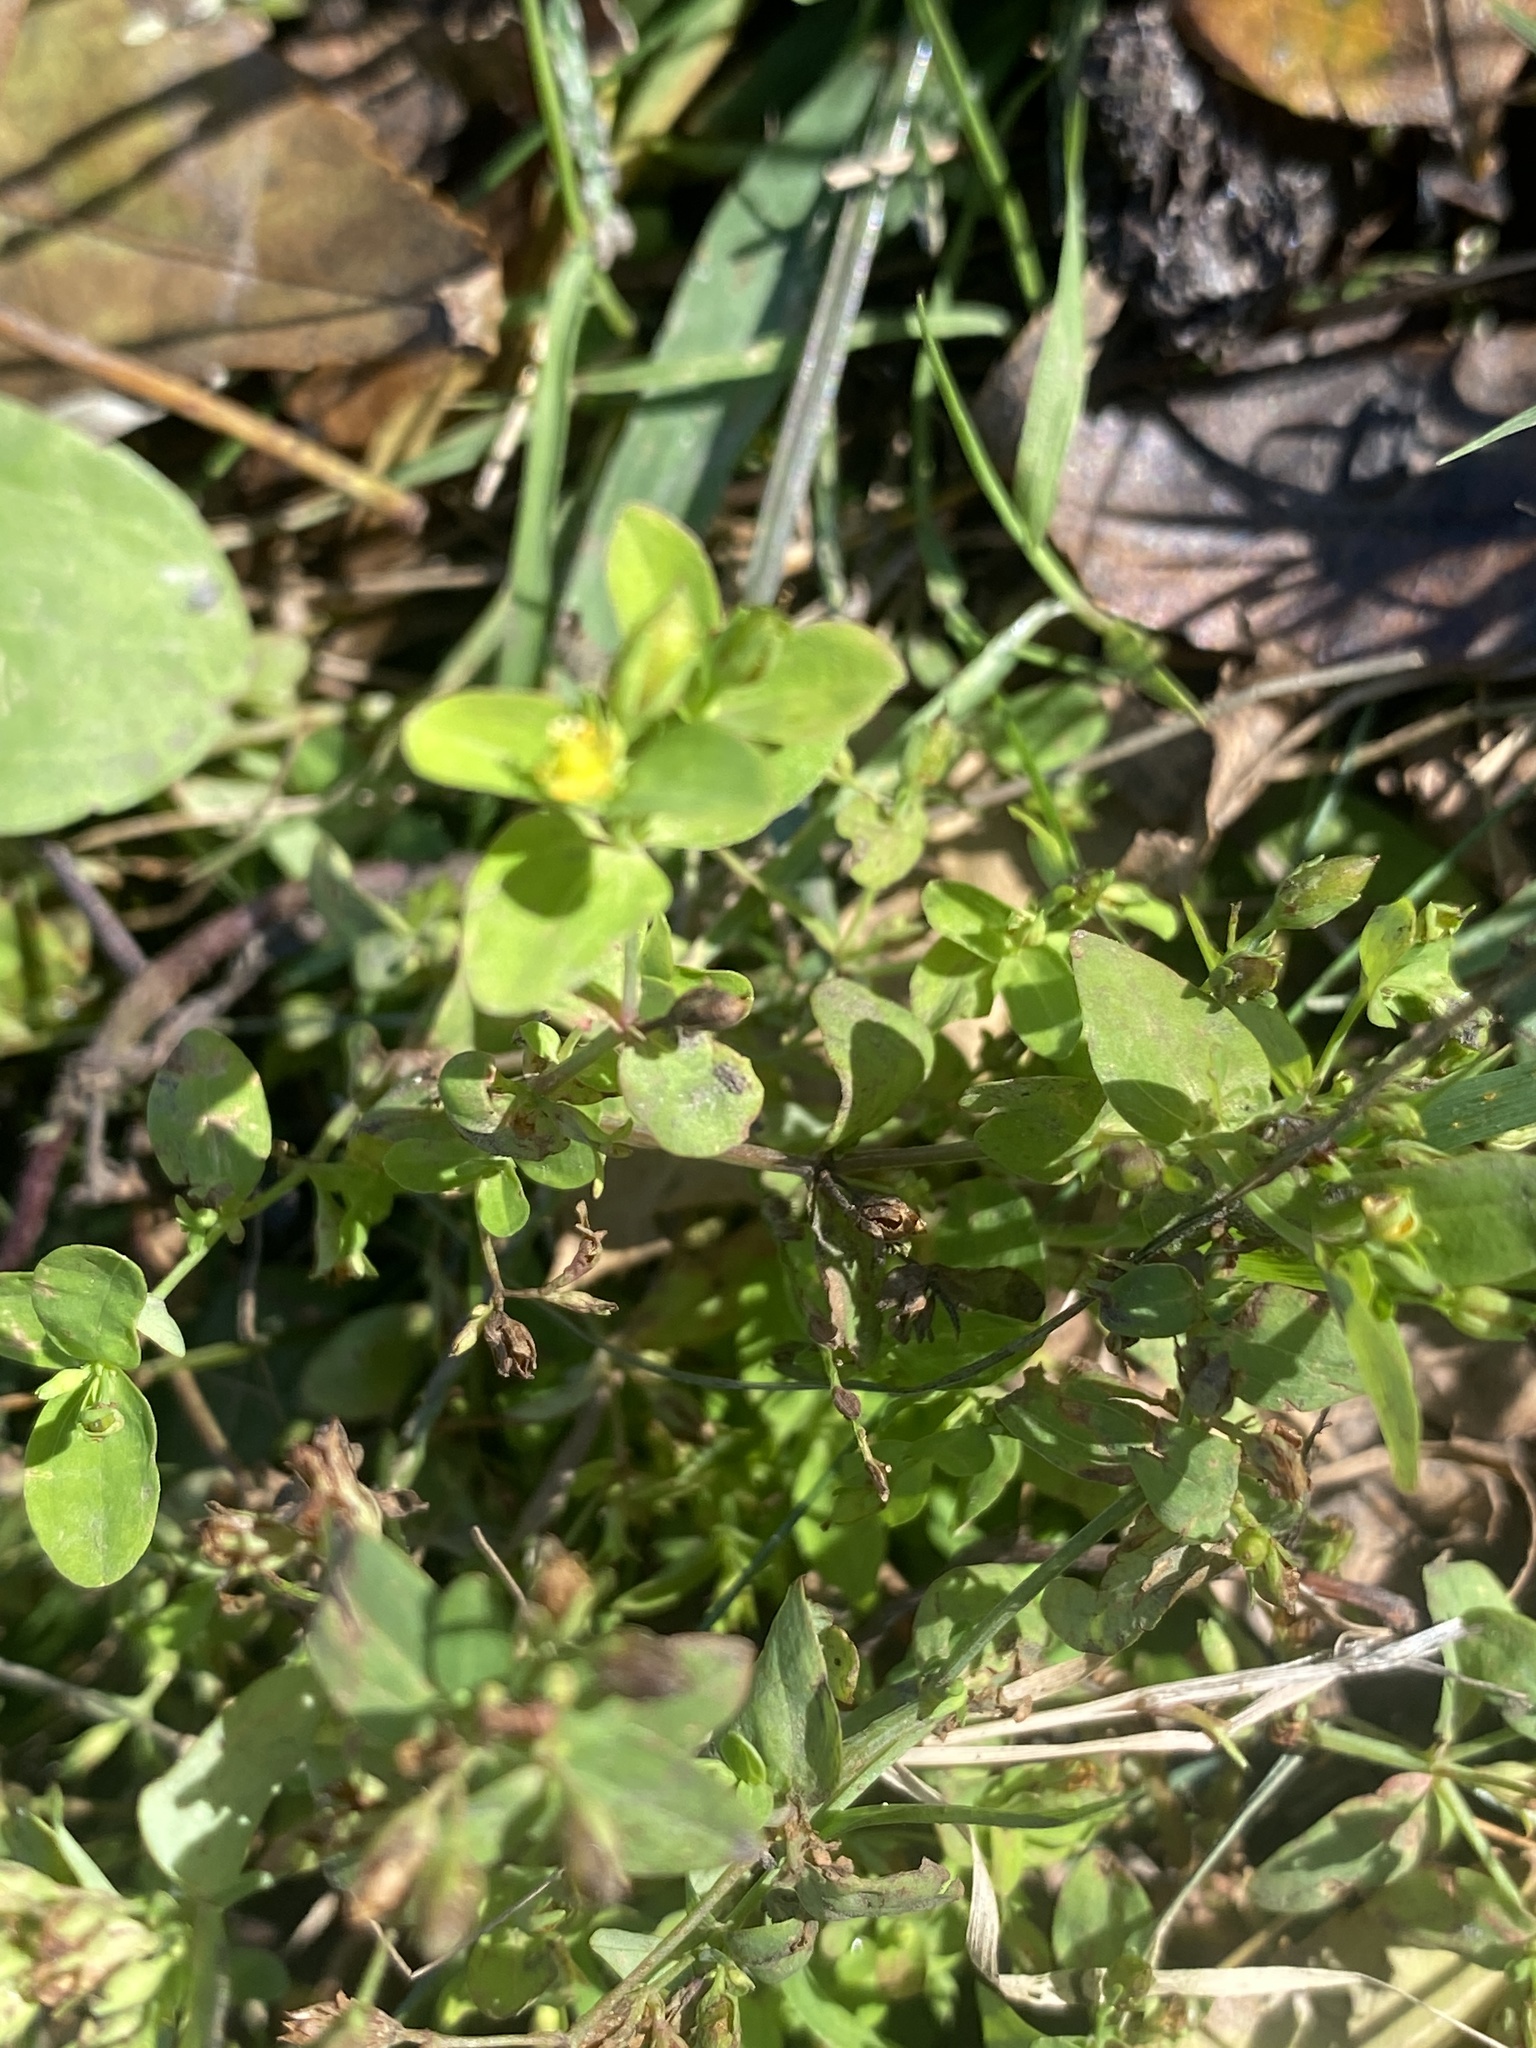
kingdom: Plantae
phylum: Tracheophyta
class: Magnoliopsida
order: Malpighiales
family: Hypericaceae
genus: Hypericum
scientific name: Hypericum mutilum
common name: Dwarf st. john's-wort
